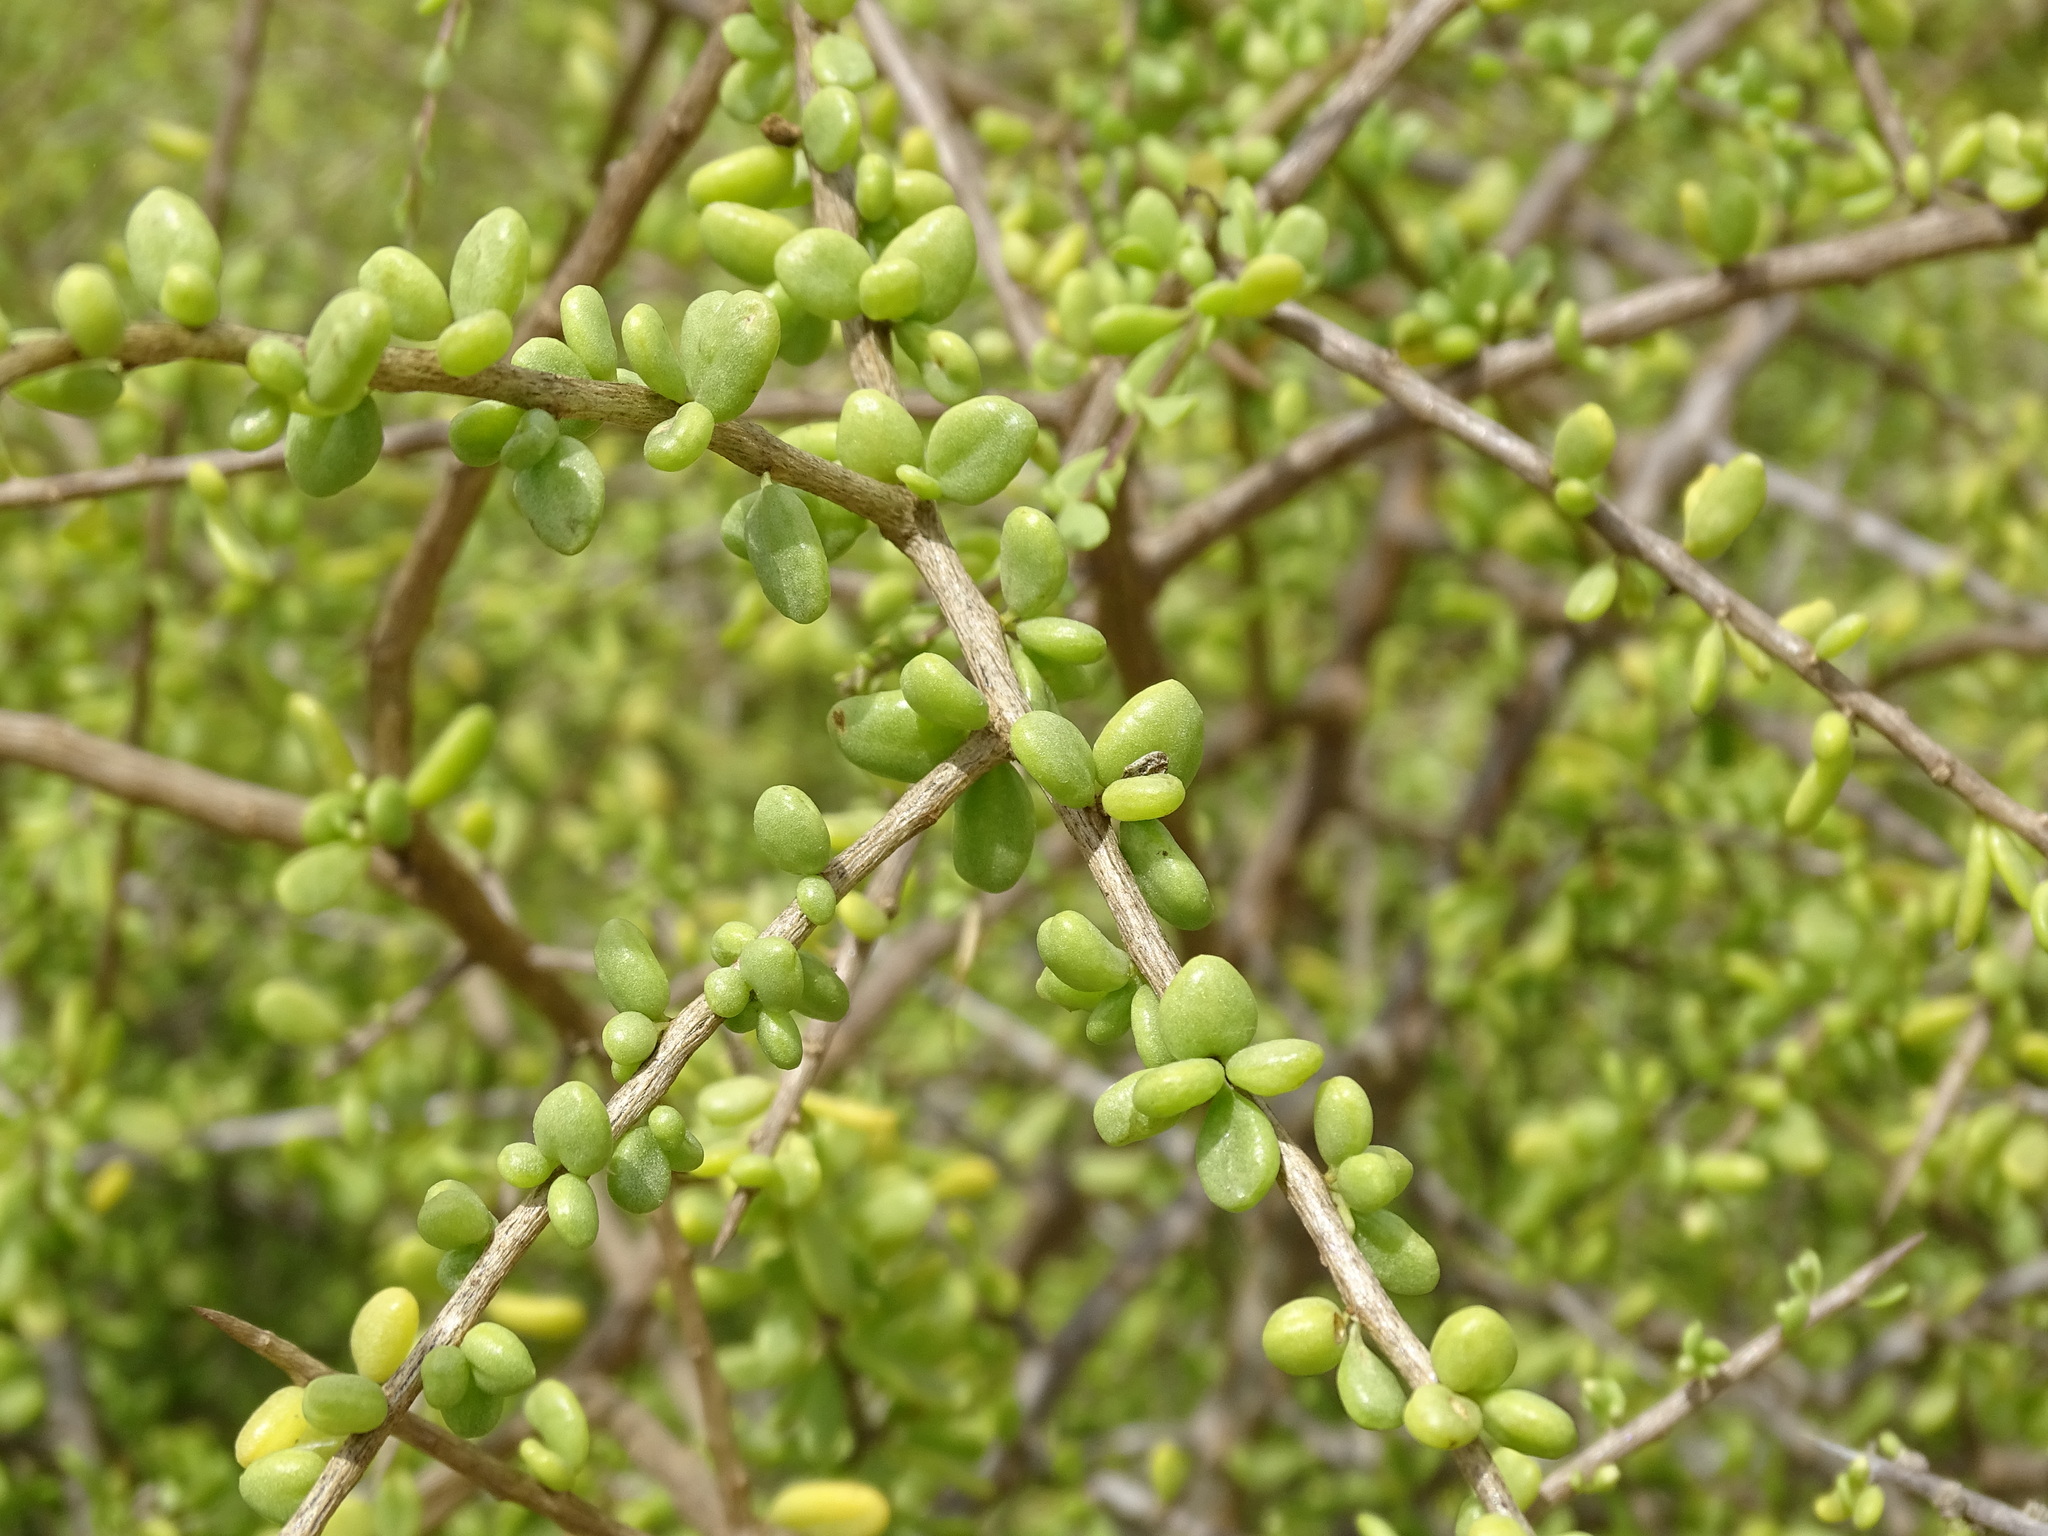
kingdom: Plantae
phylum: Tracheophyta
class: Magnoliopsida
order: Solanales
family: Solanaceae
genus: Lycium
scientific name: Lycium californicum
